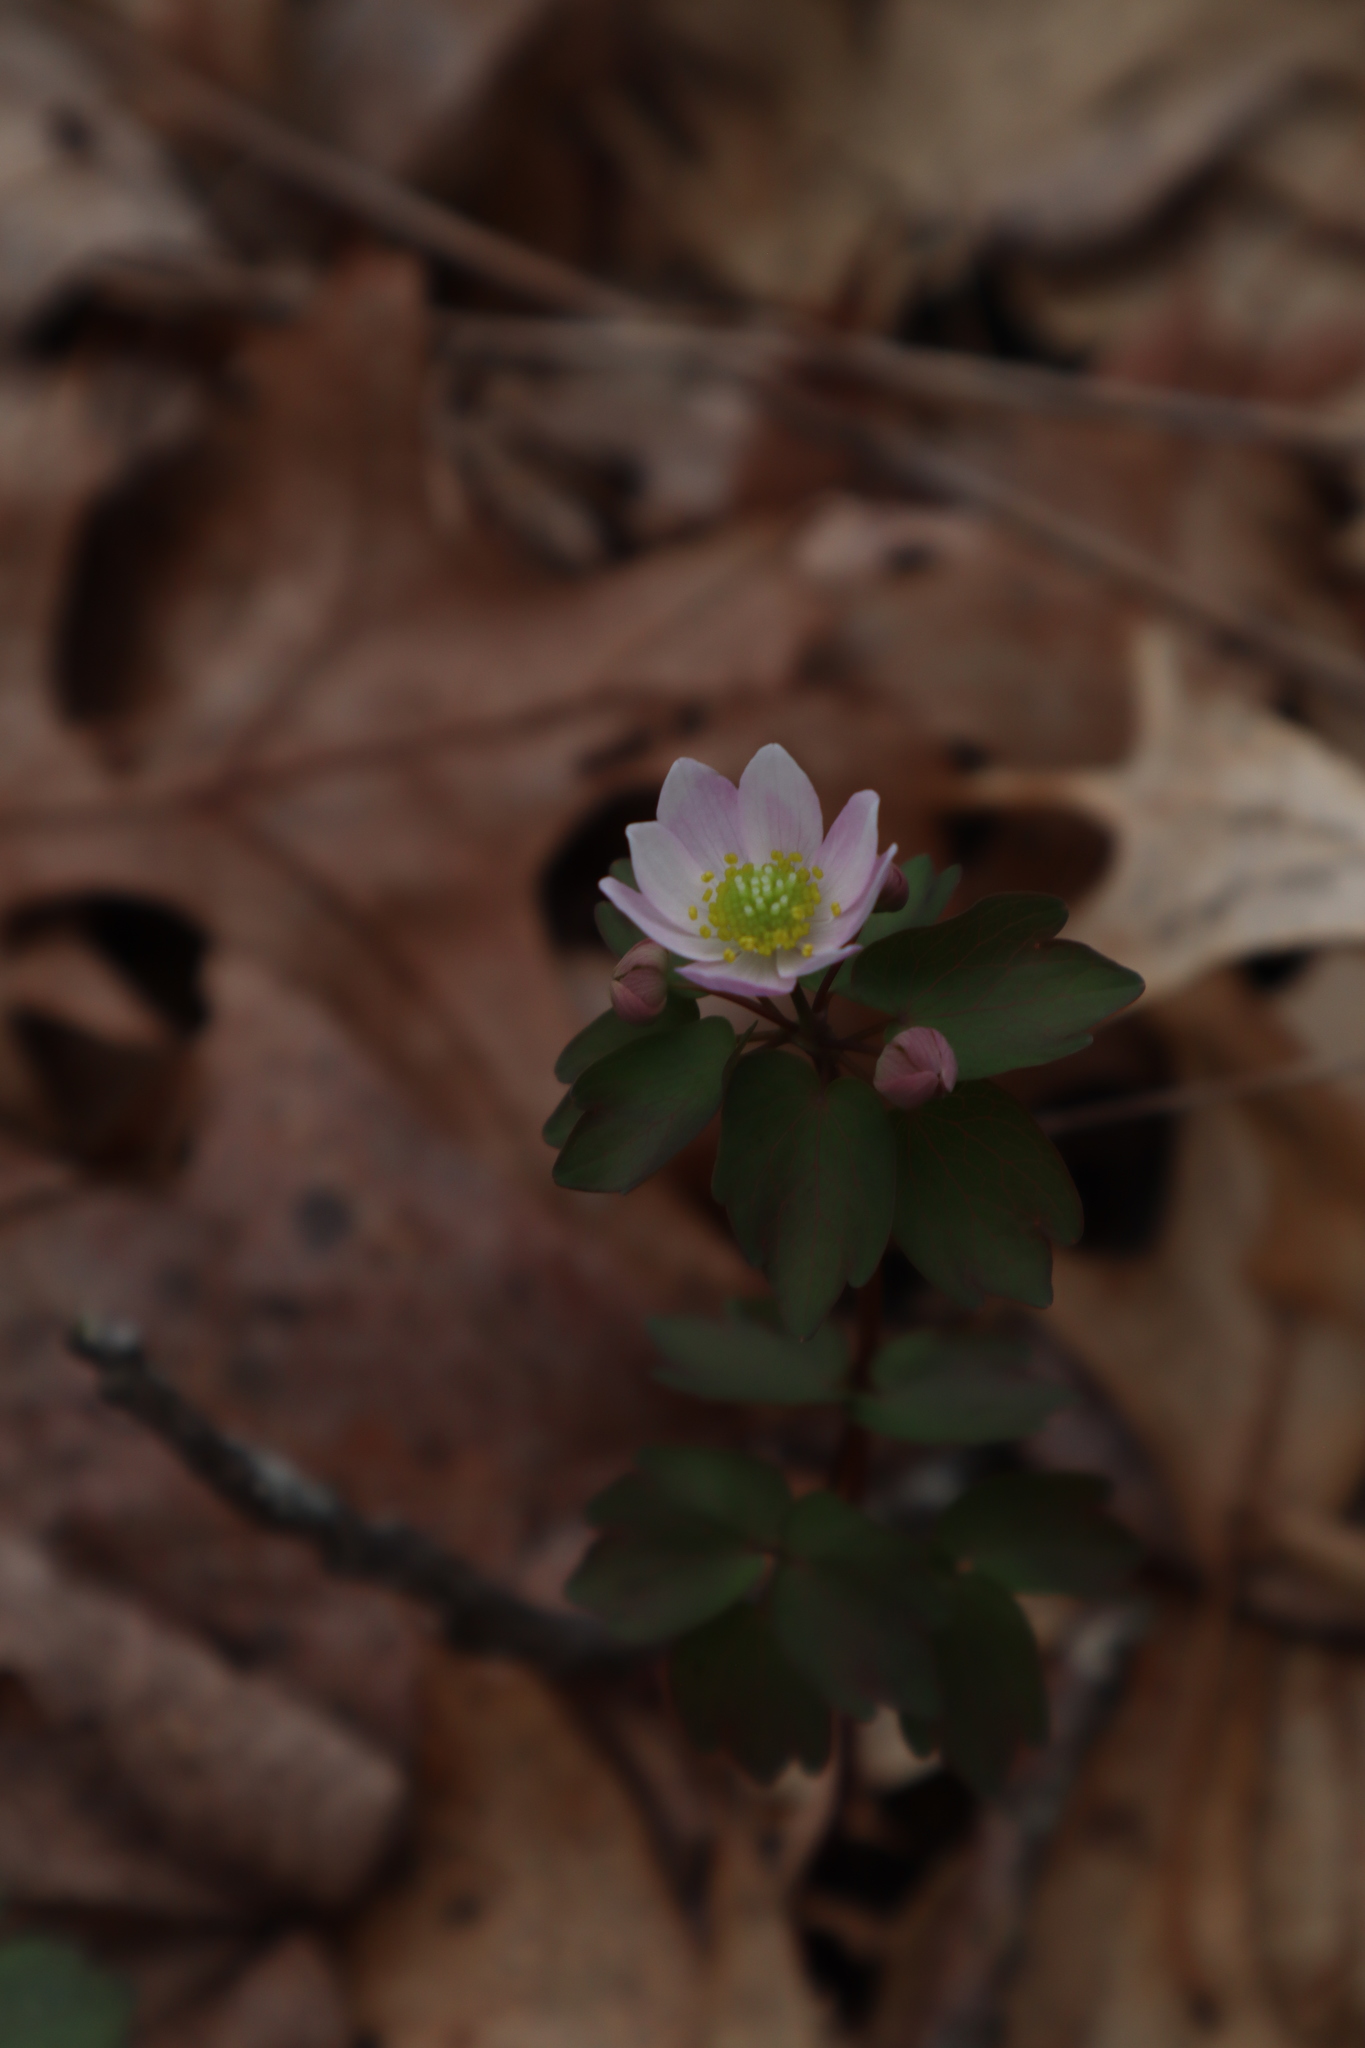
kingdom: Plantae
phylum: Tracheophyta
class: Magnoliopsida
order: Ranunculales
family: Ranunculaceae
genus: Thalictrum
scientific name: Thalictrum thalictroides
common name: Rue-anemone
